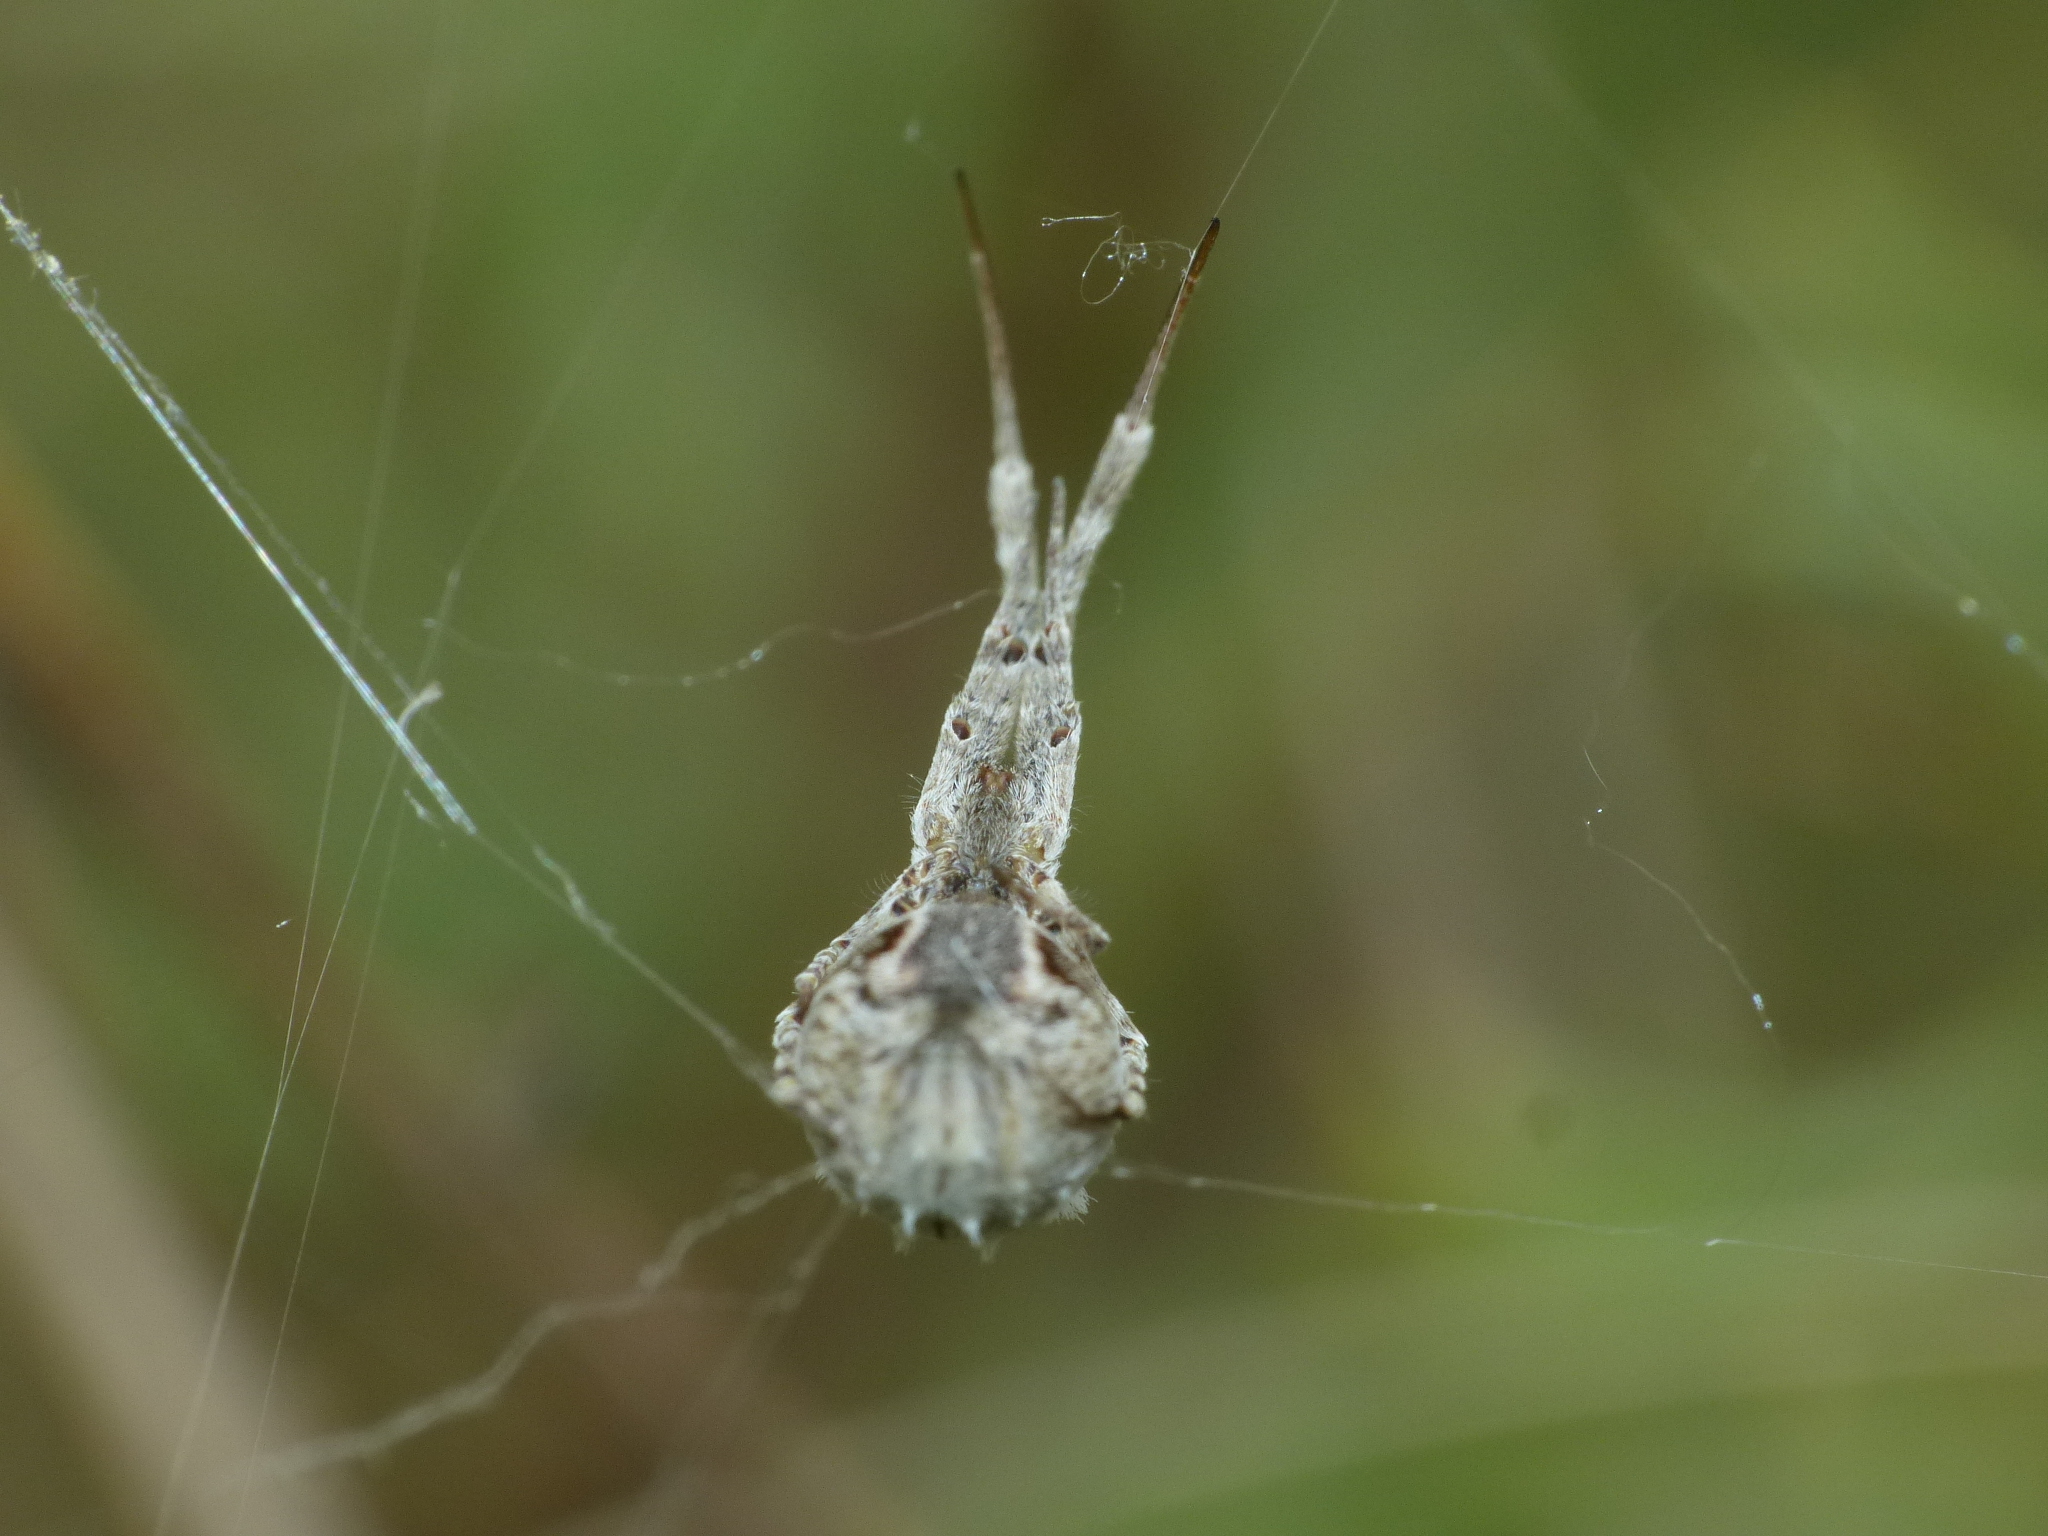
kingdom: Animalia
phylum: Arthropoda
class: Arachnida
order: Araneae
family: Uloboridae
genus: Uloborus
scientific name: Uloborus walckenaerius
